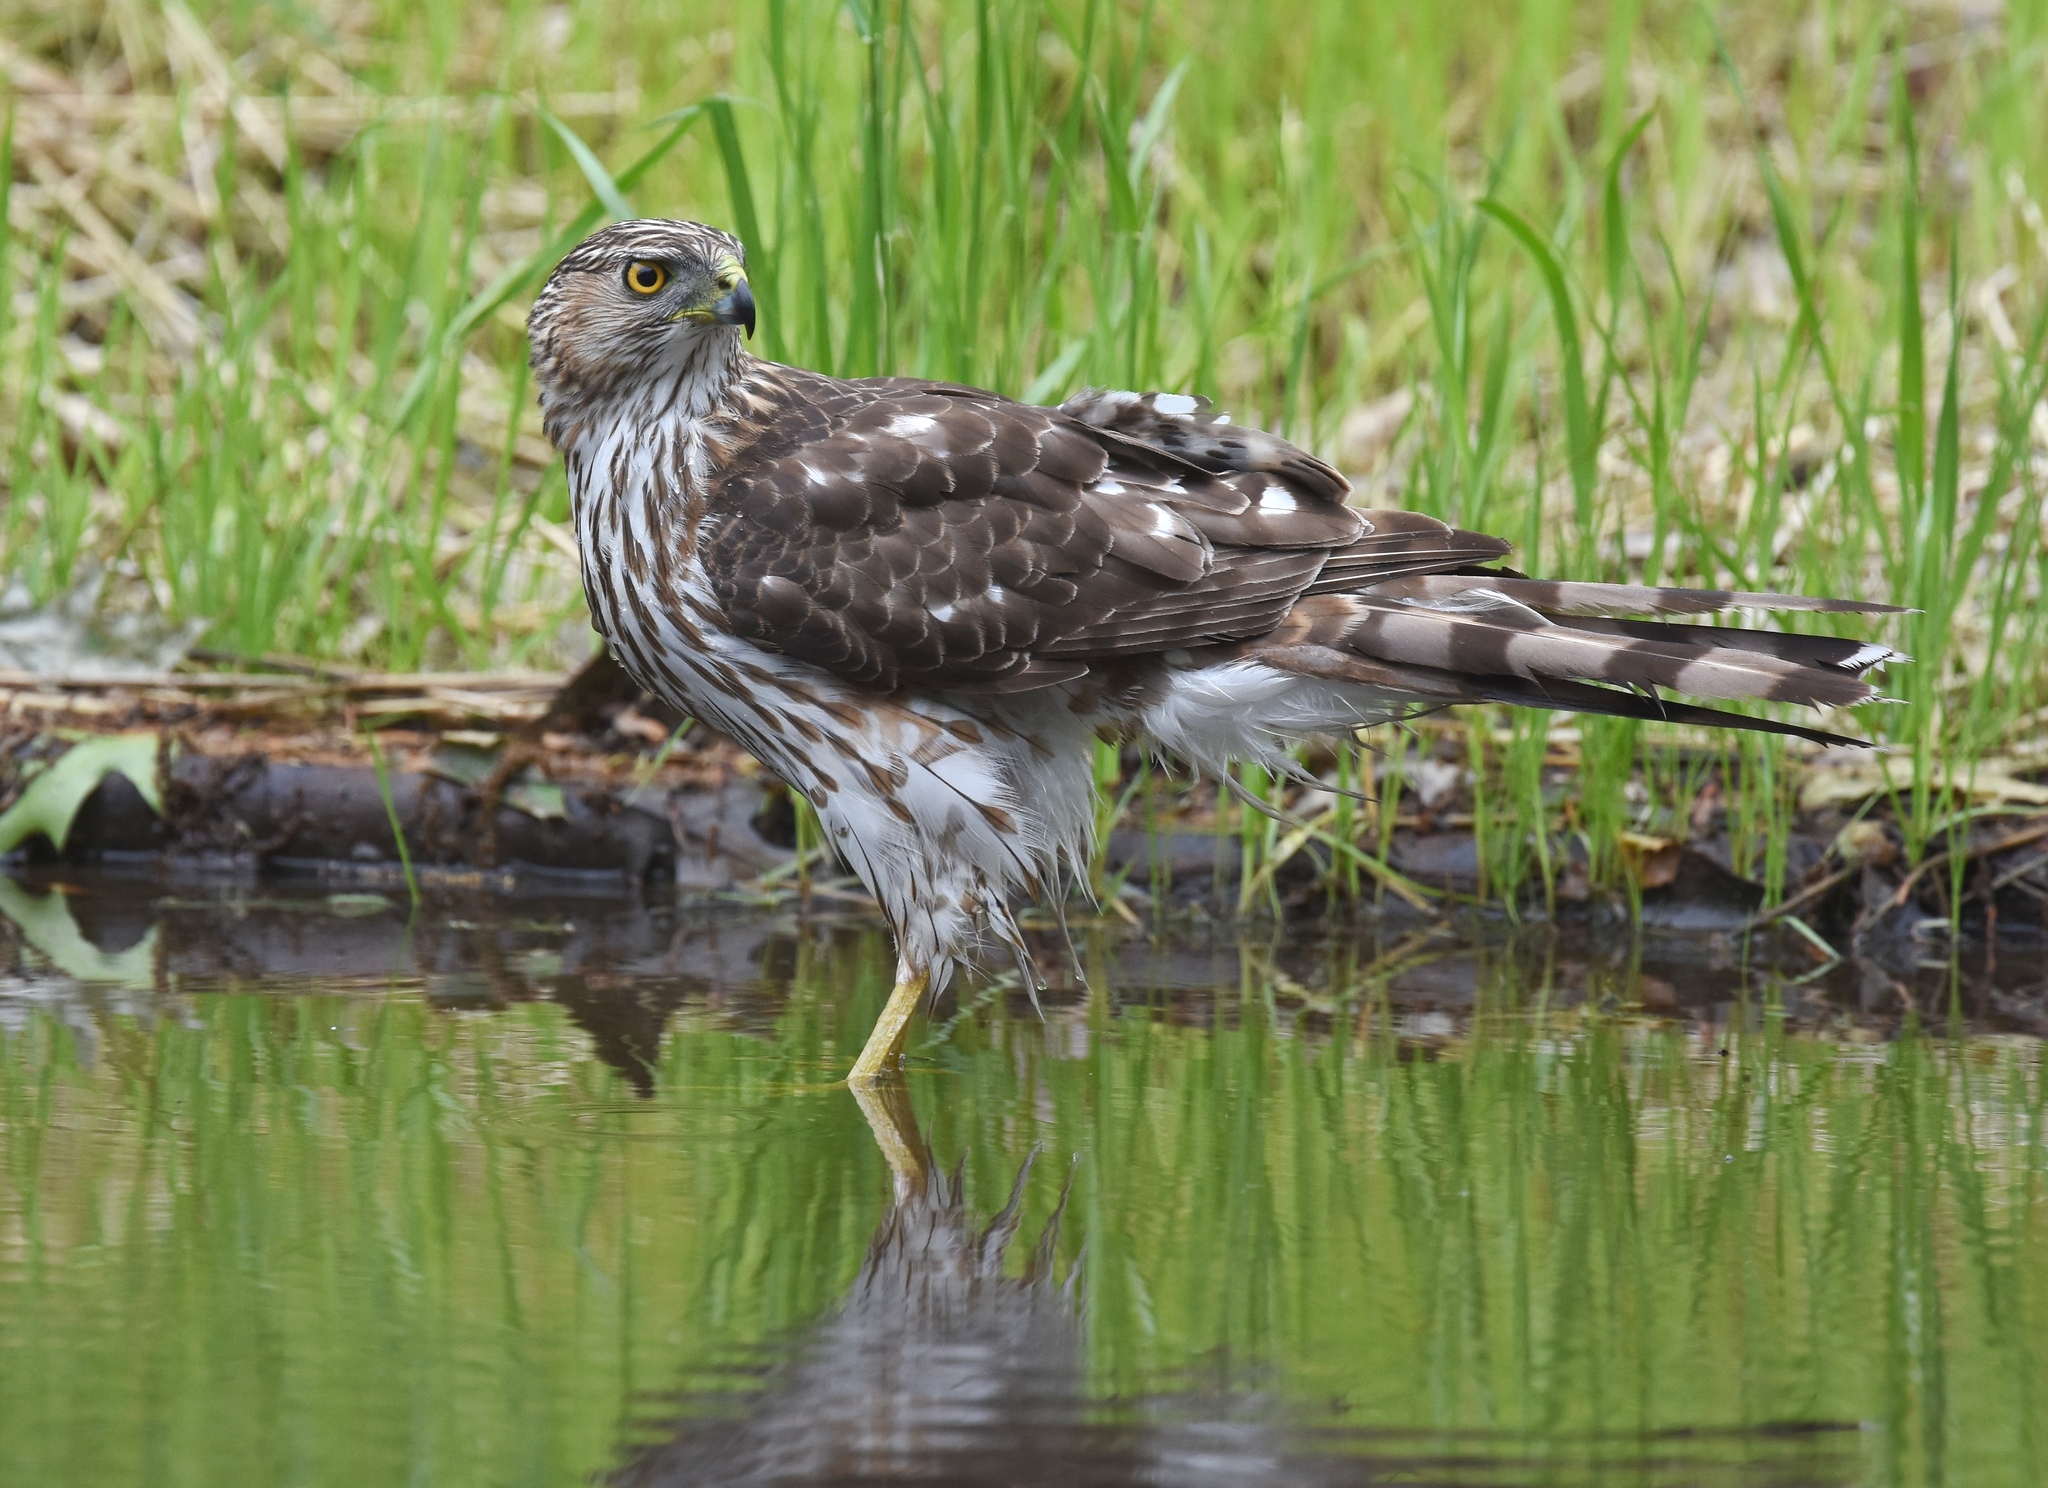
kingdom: Animalia
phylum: Chordata
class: Aves
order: Accipitriformes
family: Accipitridae
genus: Accipiter
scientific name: Accipiter cooperii
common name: Cooper's hawk
